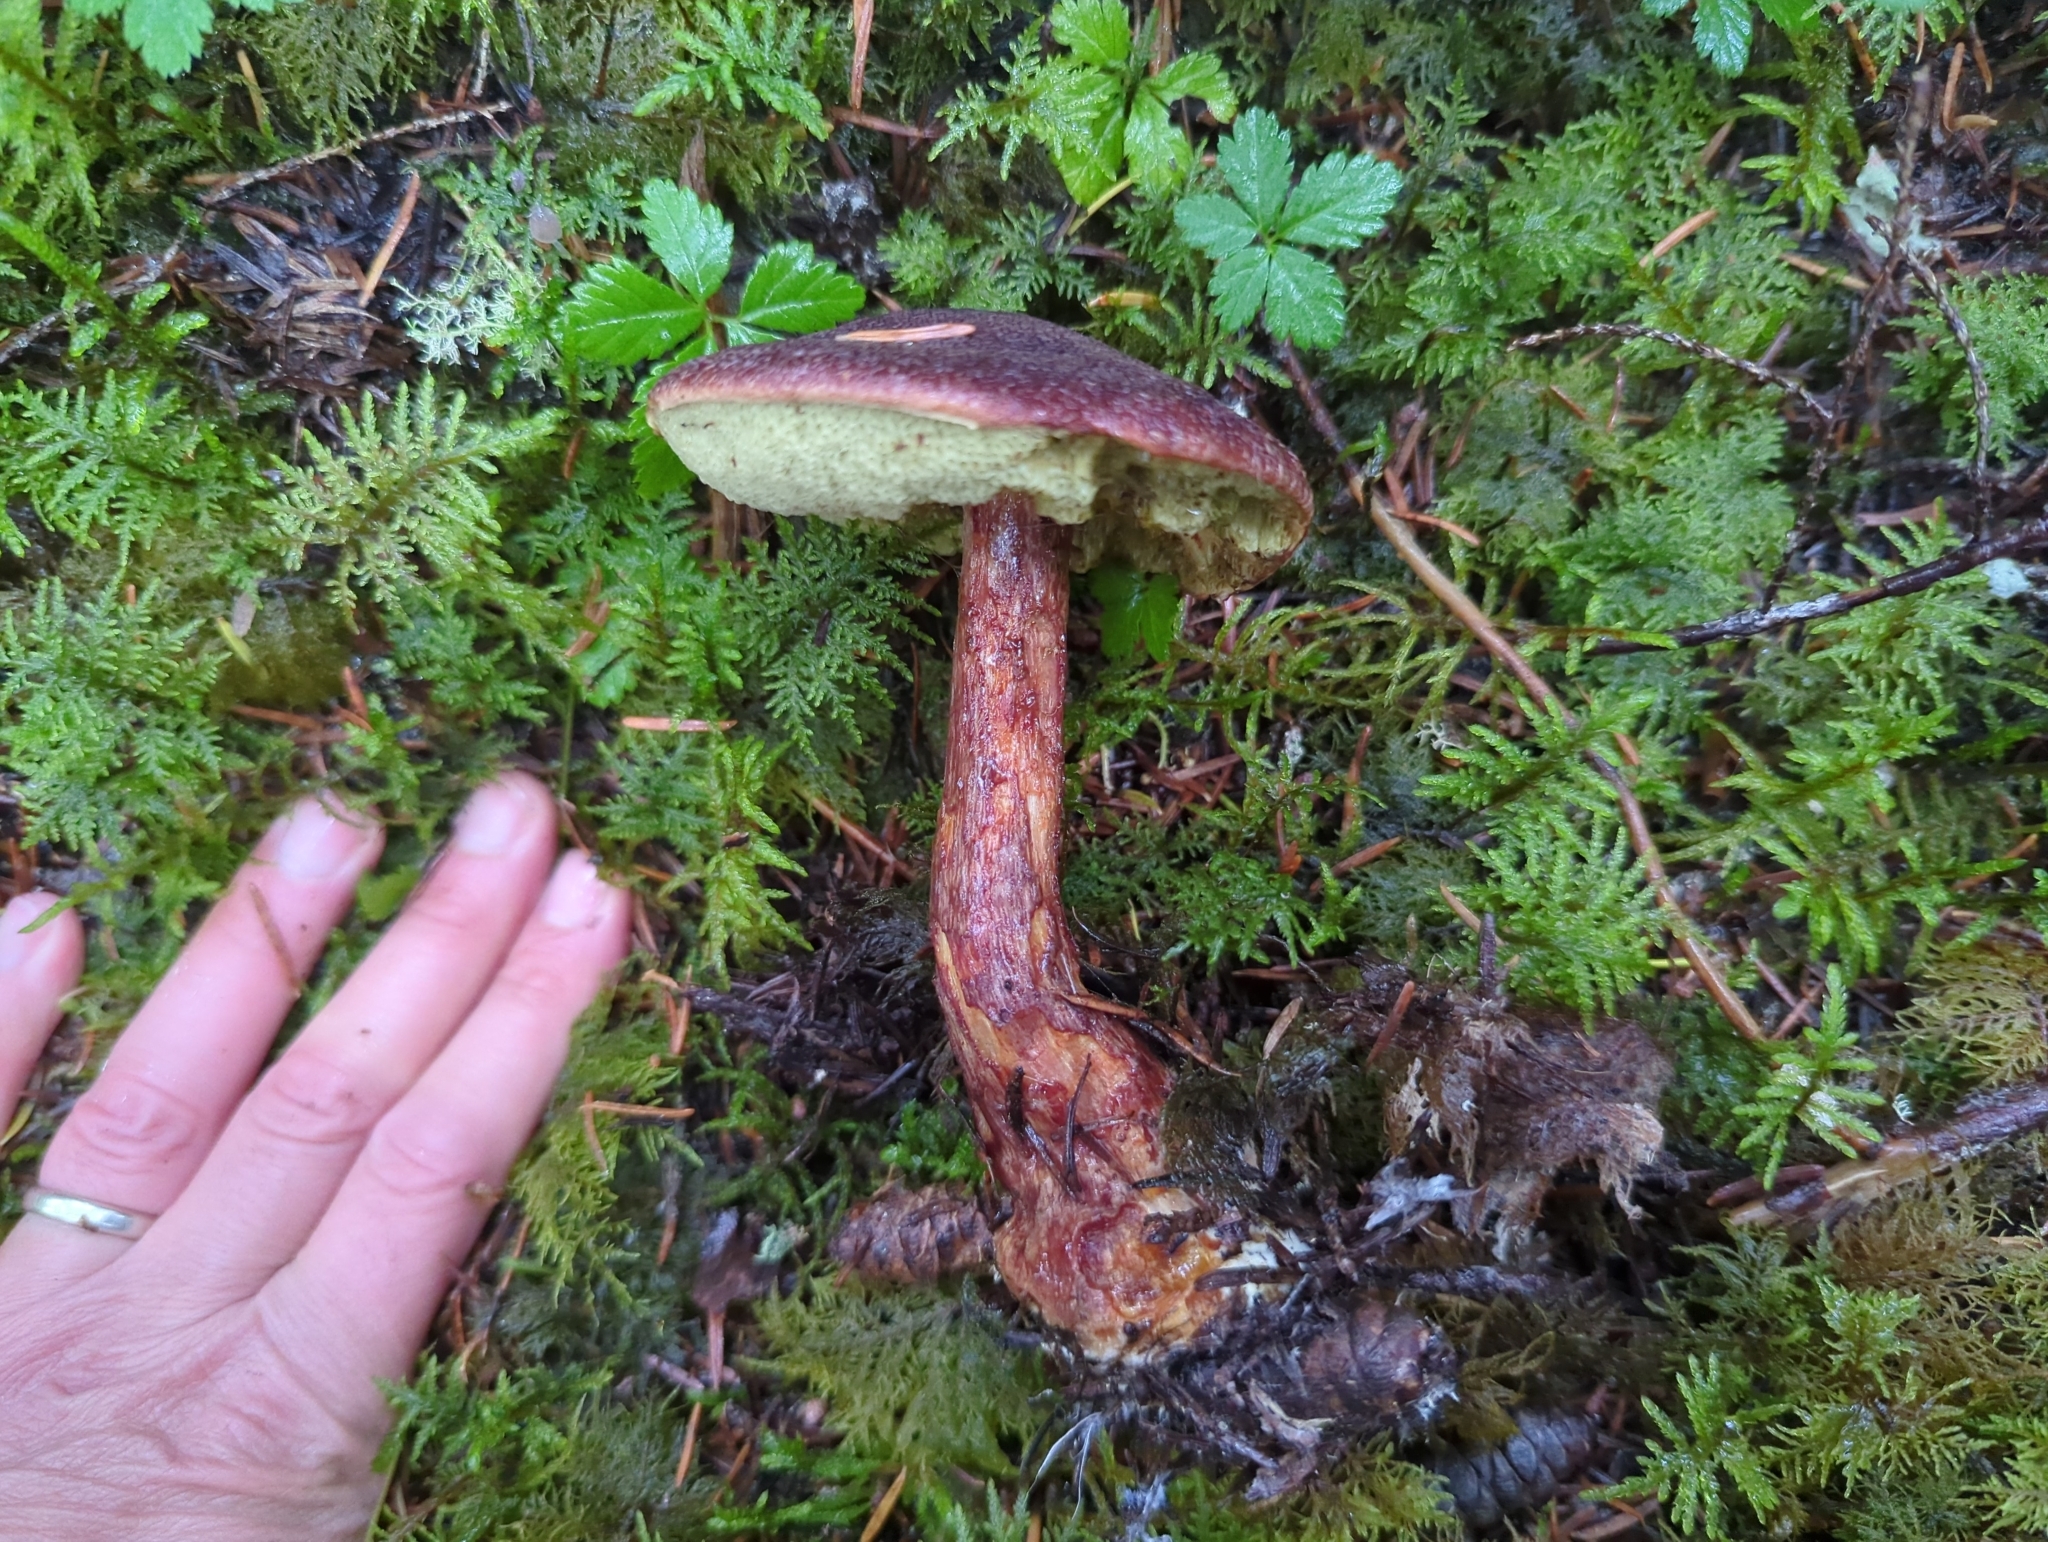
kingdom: Fungi
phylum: Basidiomycota
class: Agaricomycetes
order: Boletales
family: Boletaceae
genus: Aureoboletus
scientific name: Aureoboletus mirabilis
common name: Admirable bolete
